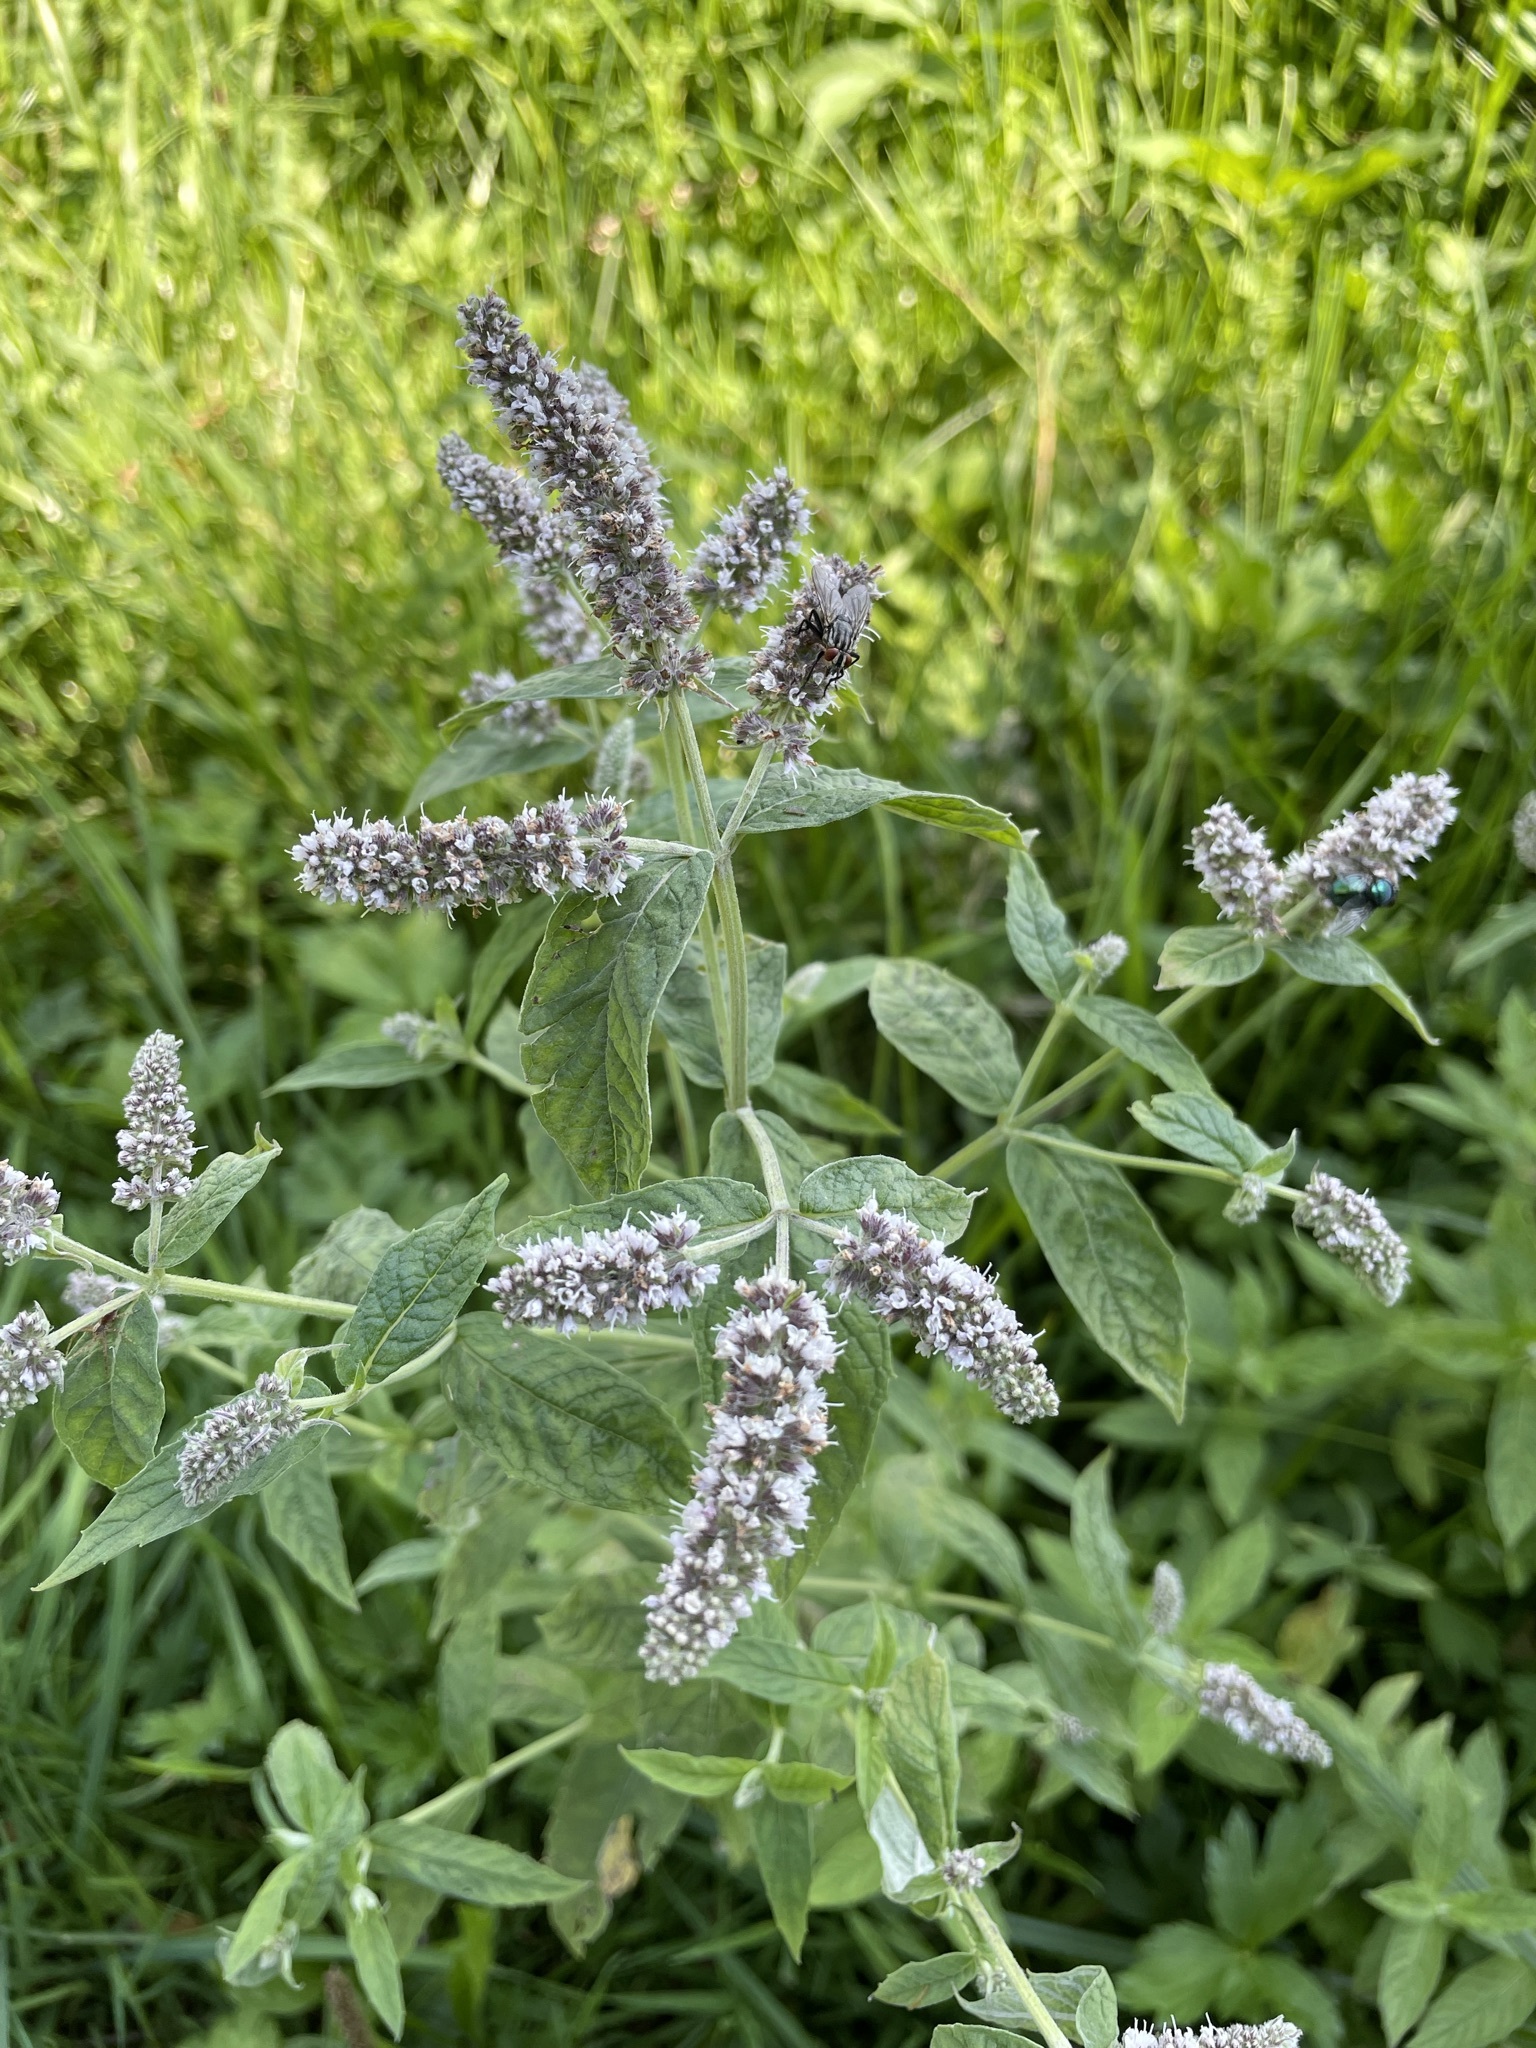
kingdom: Plantae
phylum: Tracheophyta
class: Magnoliopsida
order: Lamiales
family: Lamiaceae
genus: Mentha
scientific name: Mentha longifolia
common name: Horse mint
